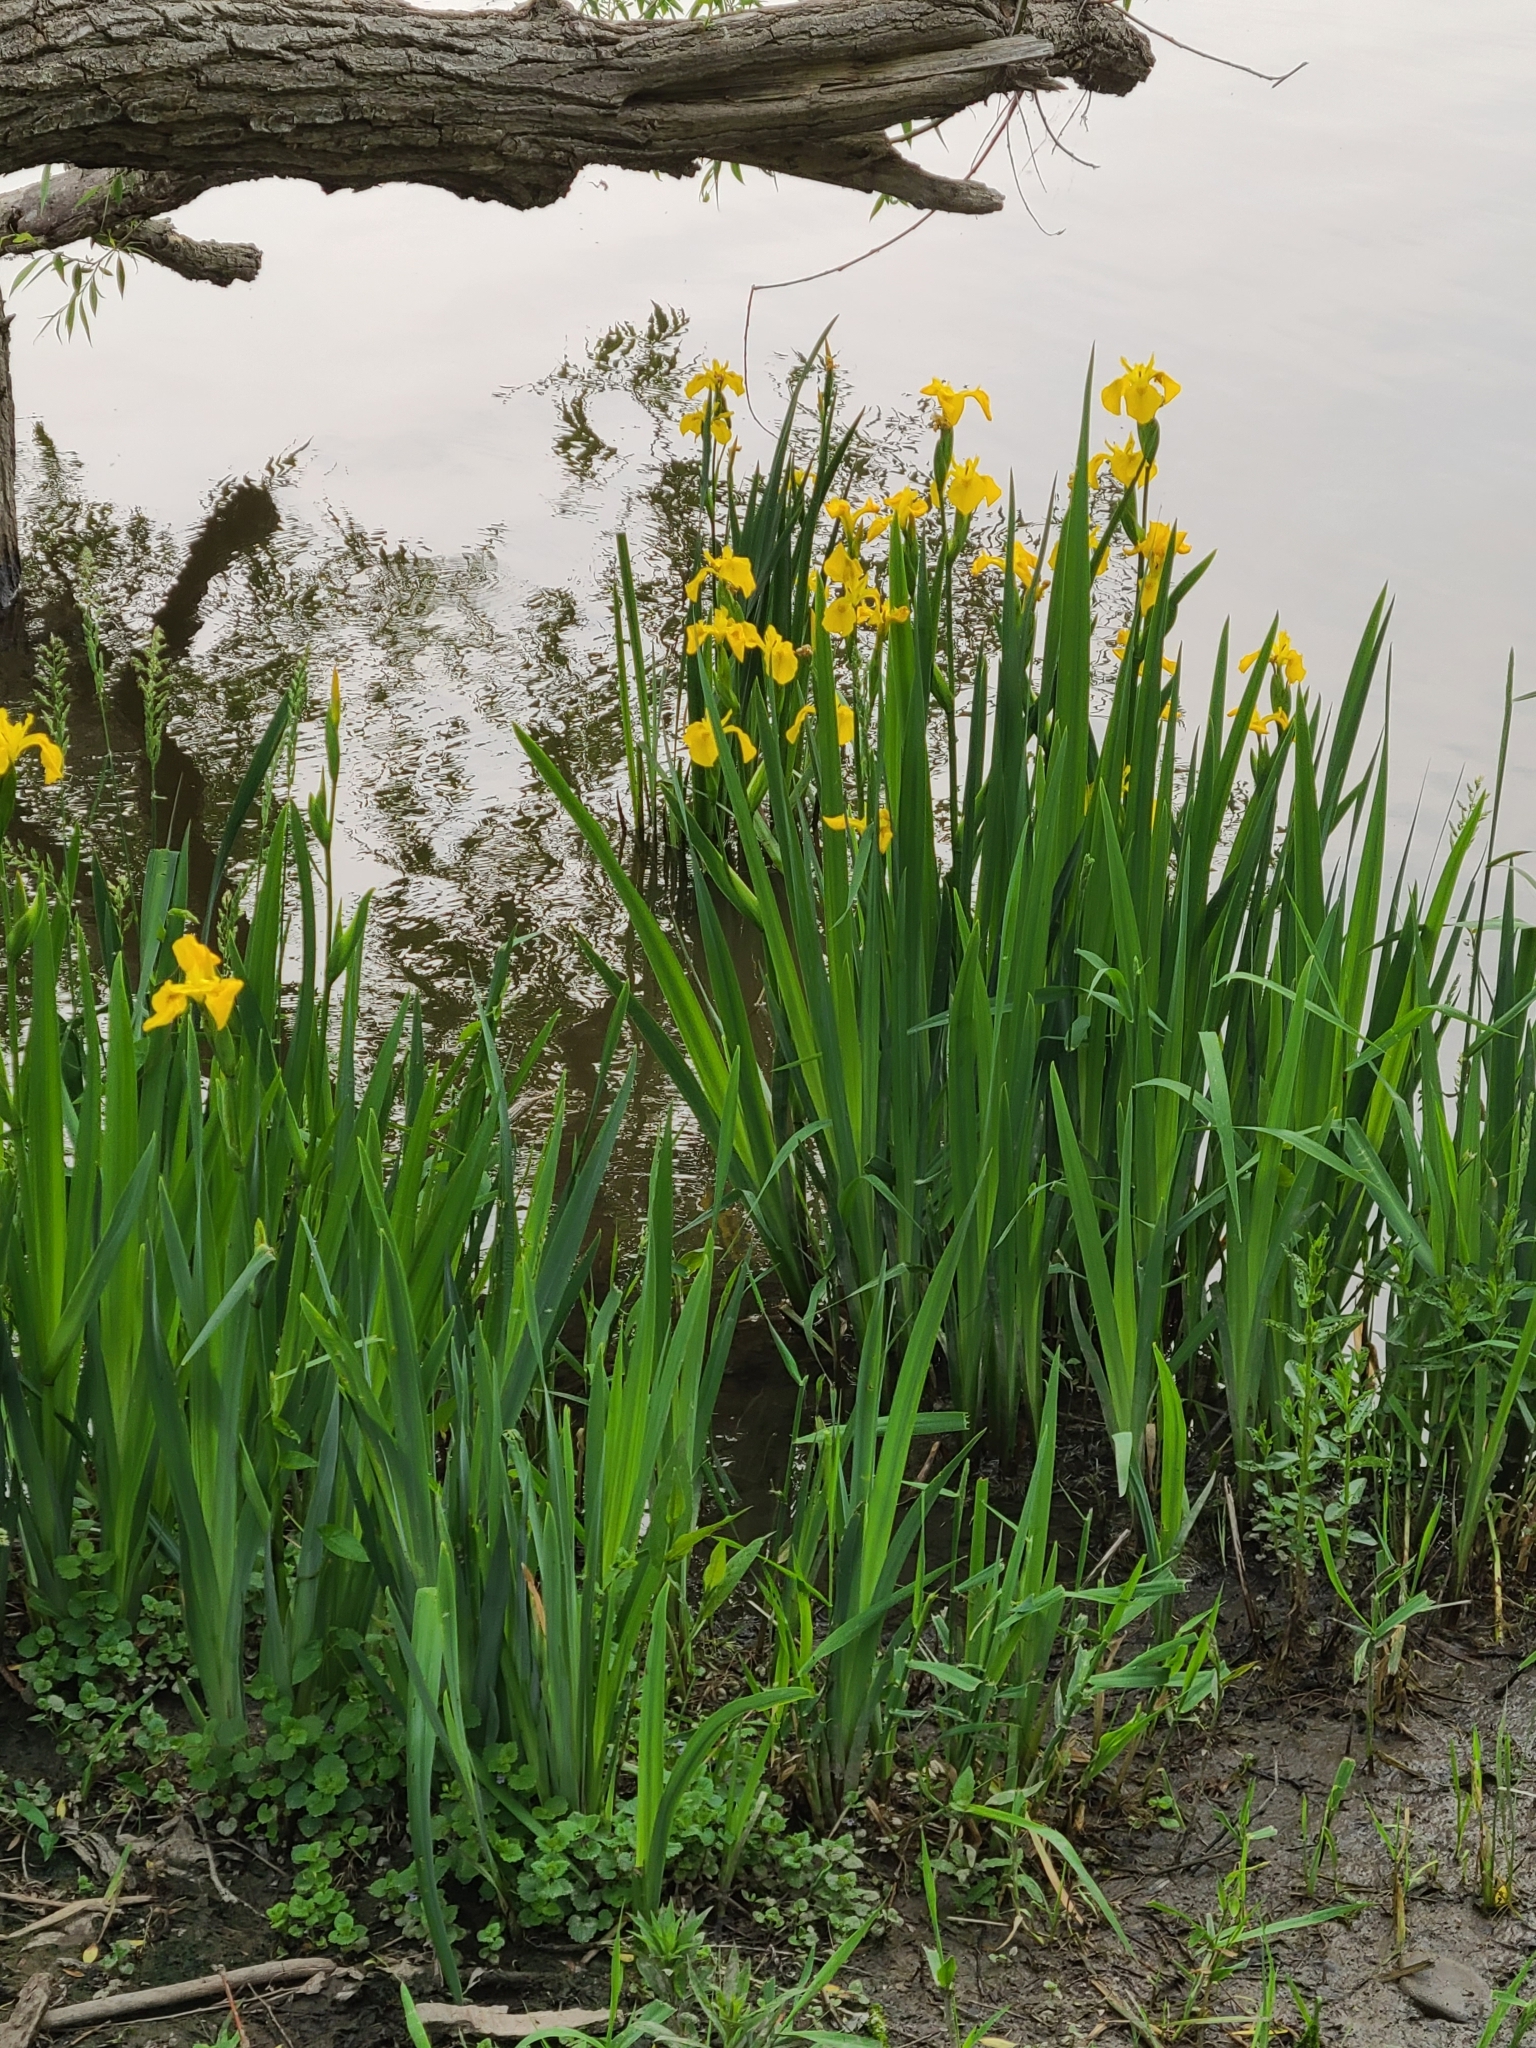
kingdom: Plantae
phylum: Tracheophyta
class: Liliopsida
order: Asparagales
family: Iridaceae
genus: Iris
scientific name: Iris pseudacorus
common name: Yellow flag
